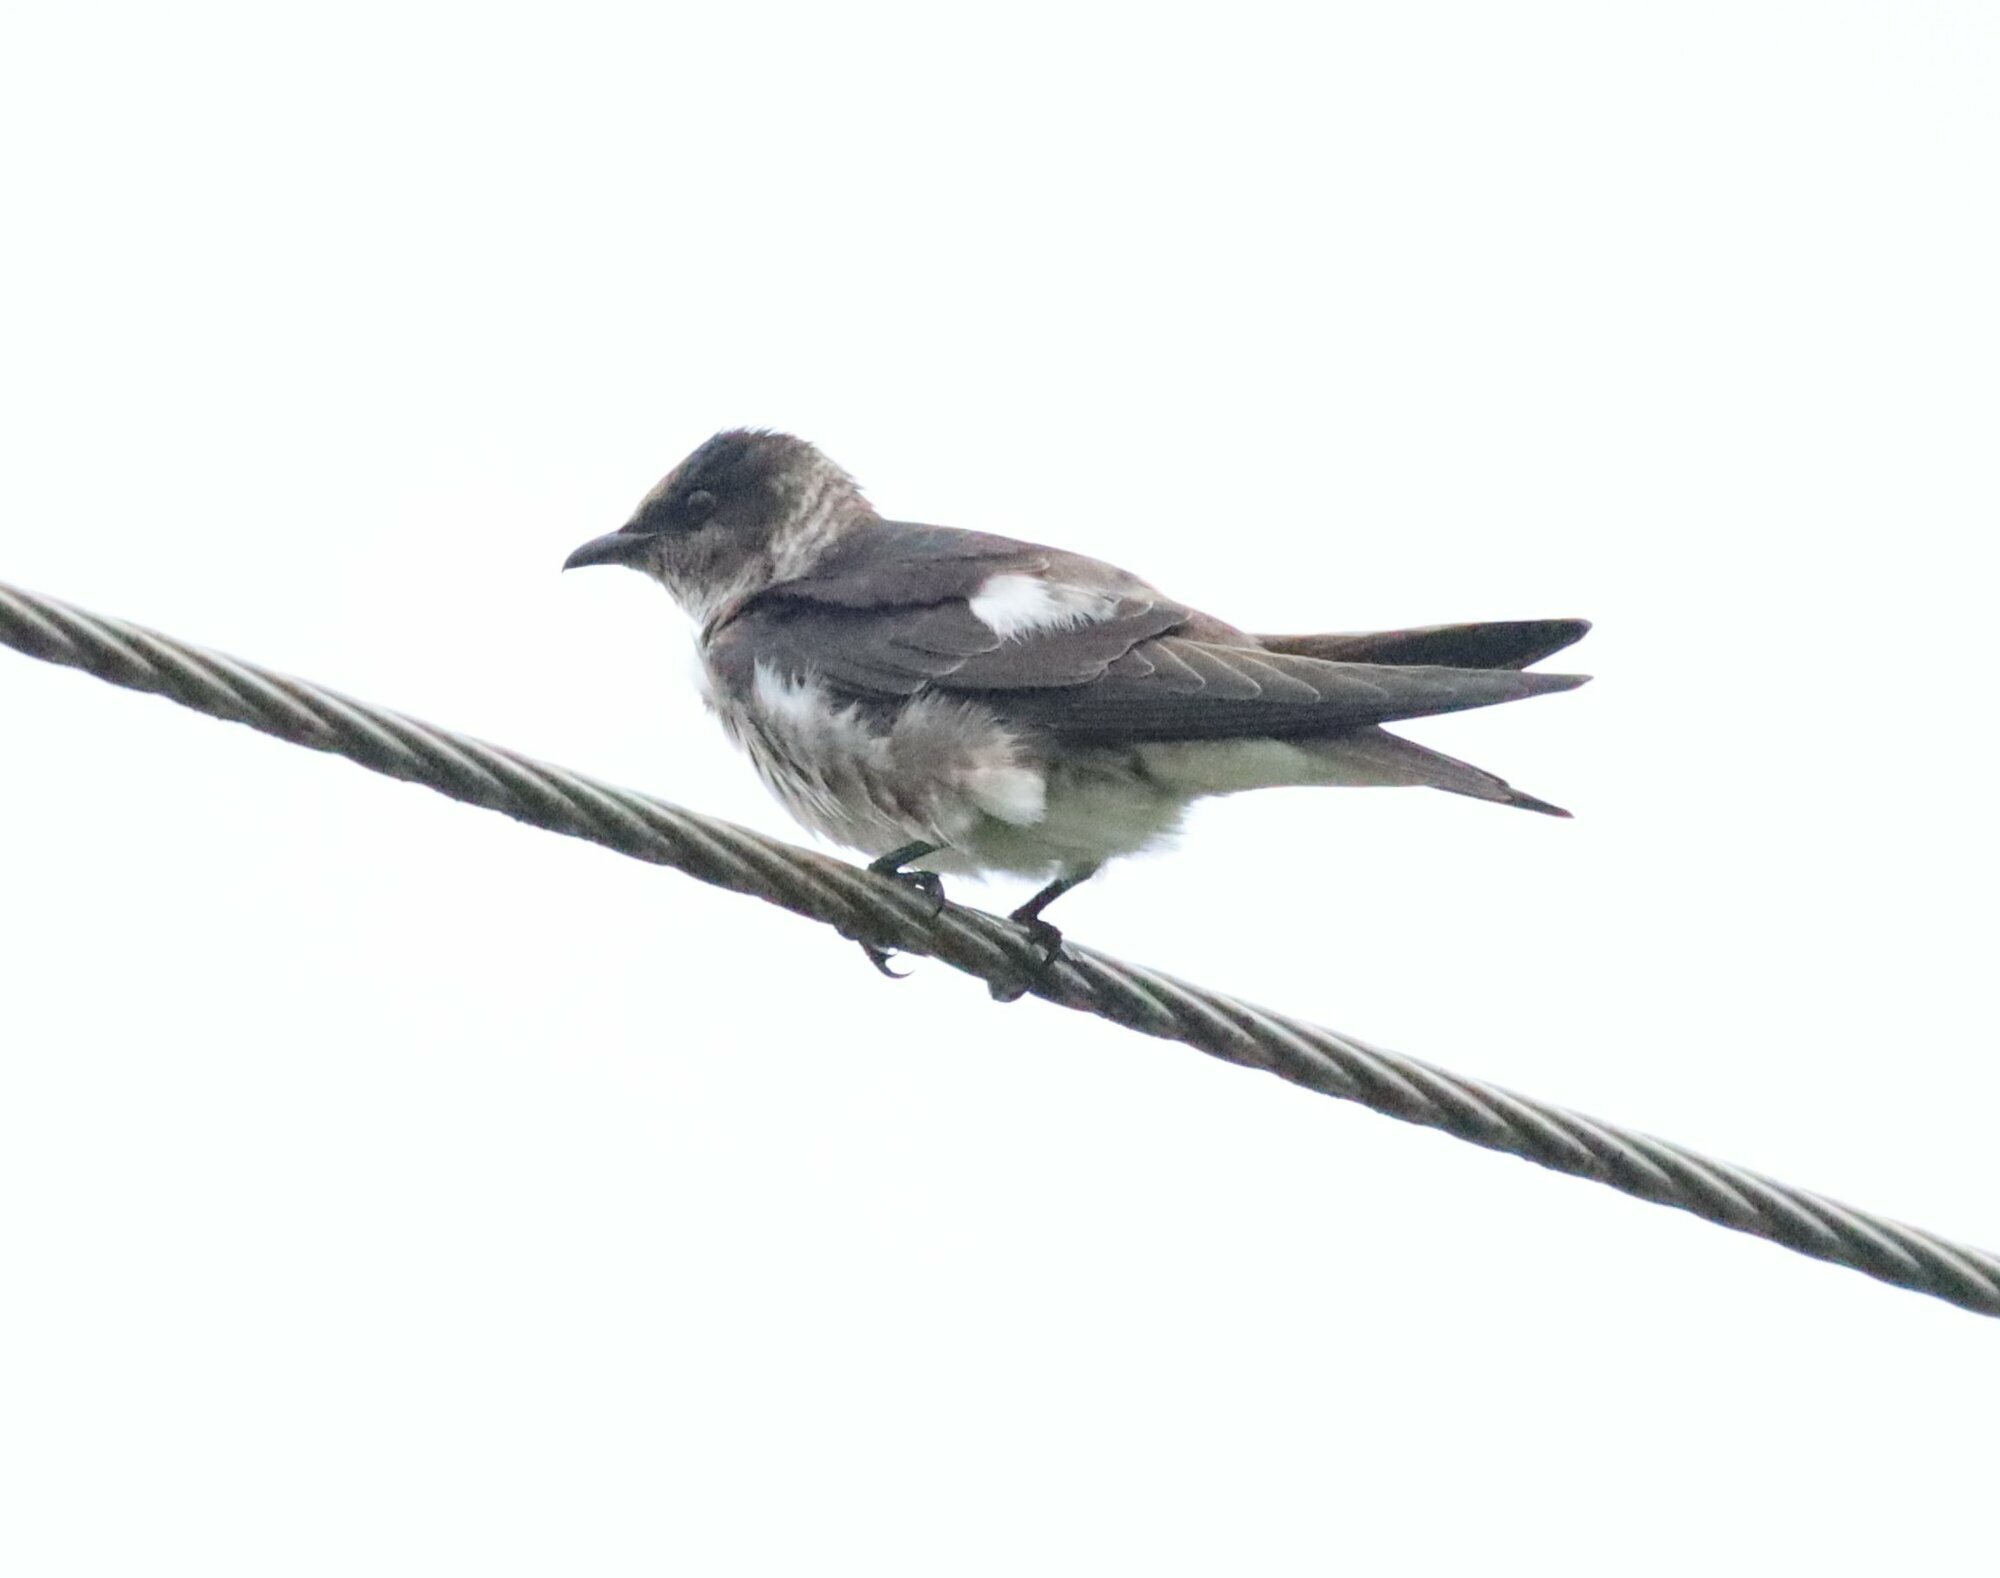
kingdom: Animalia
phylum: Chordata
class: Aves
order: Passeriformes
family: Hirundinidae
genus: Progne
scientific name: Progne chalybea
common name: Grey-breasted martin
